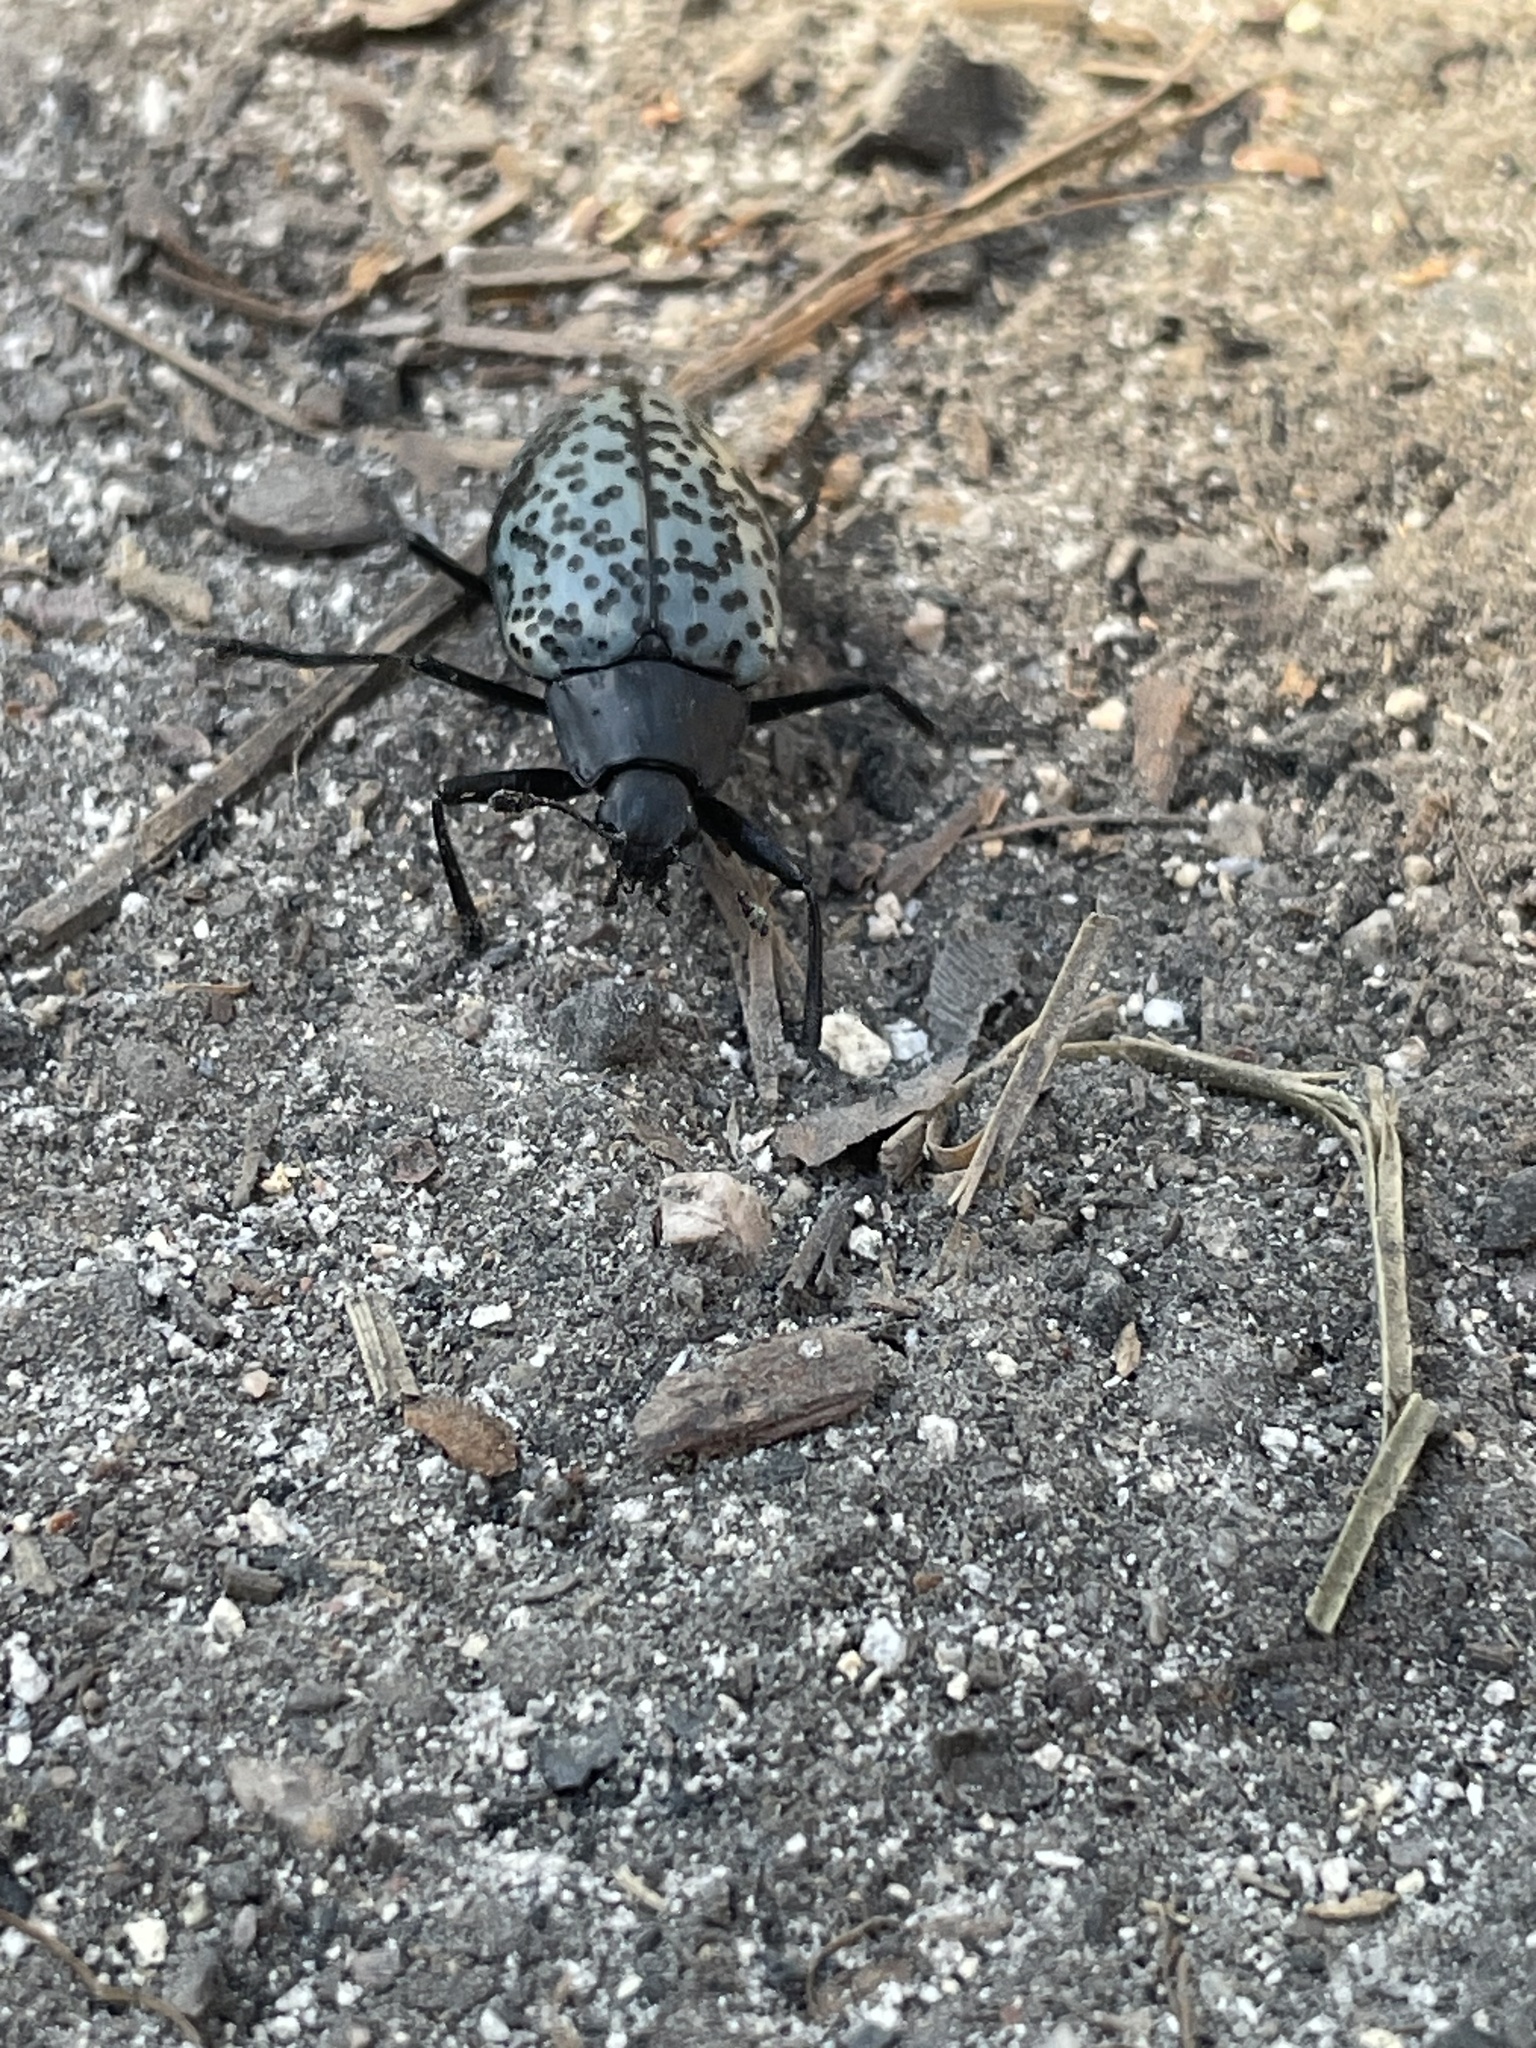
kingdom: Animalia
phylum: Arthropoda
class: Insecta
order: Coleoptera
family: Erotylidae
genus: Gibbifer
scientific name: Gibbifer californicus
